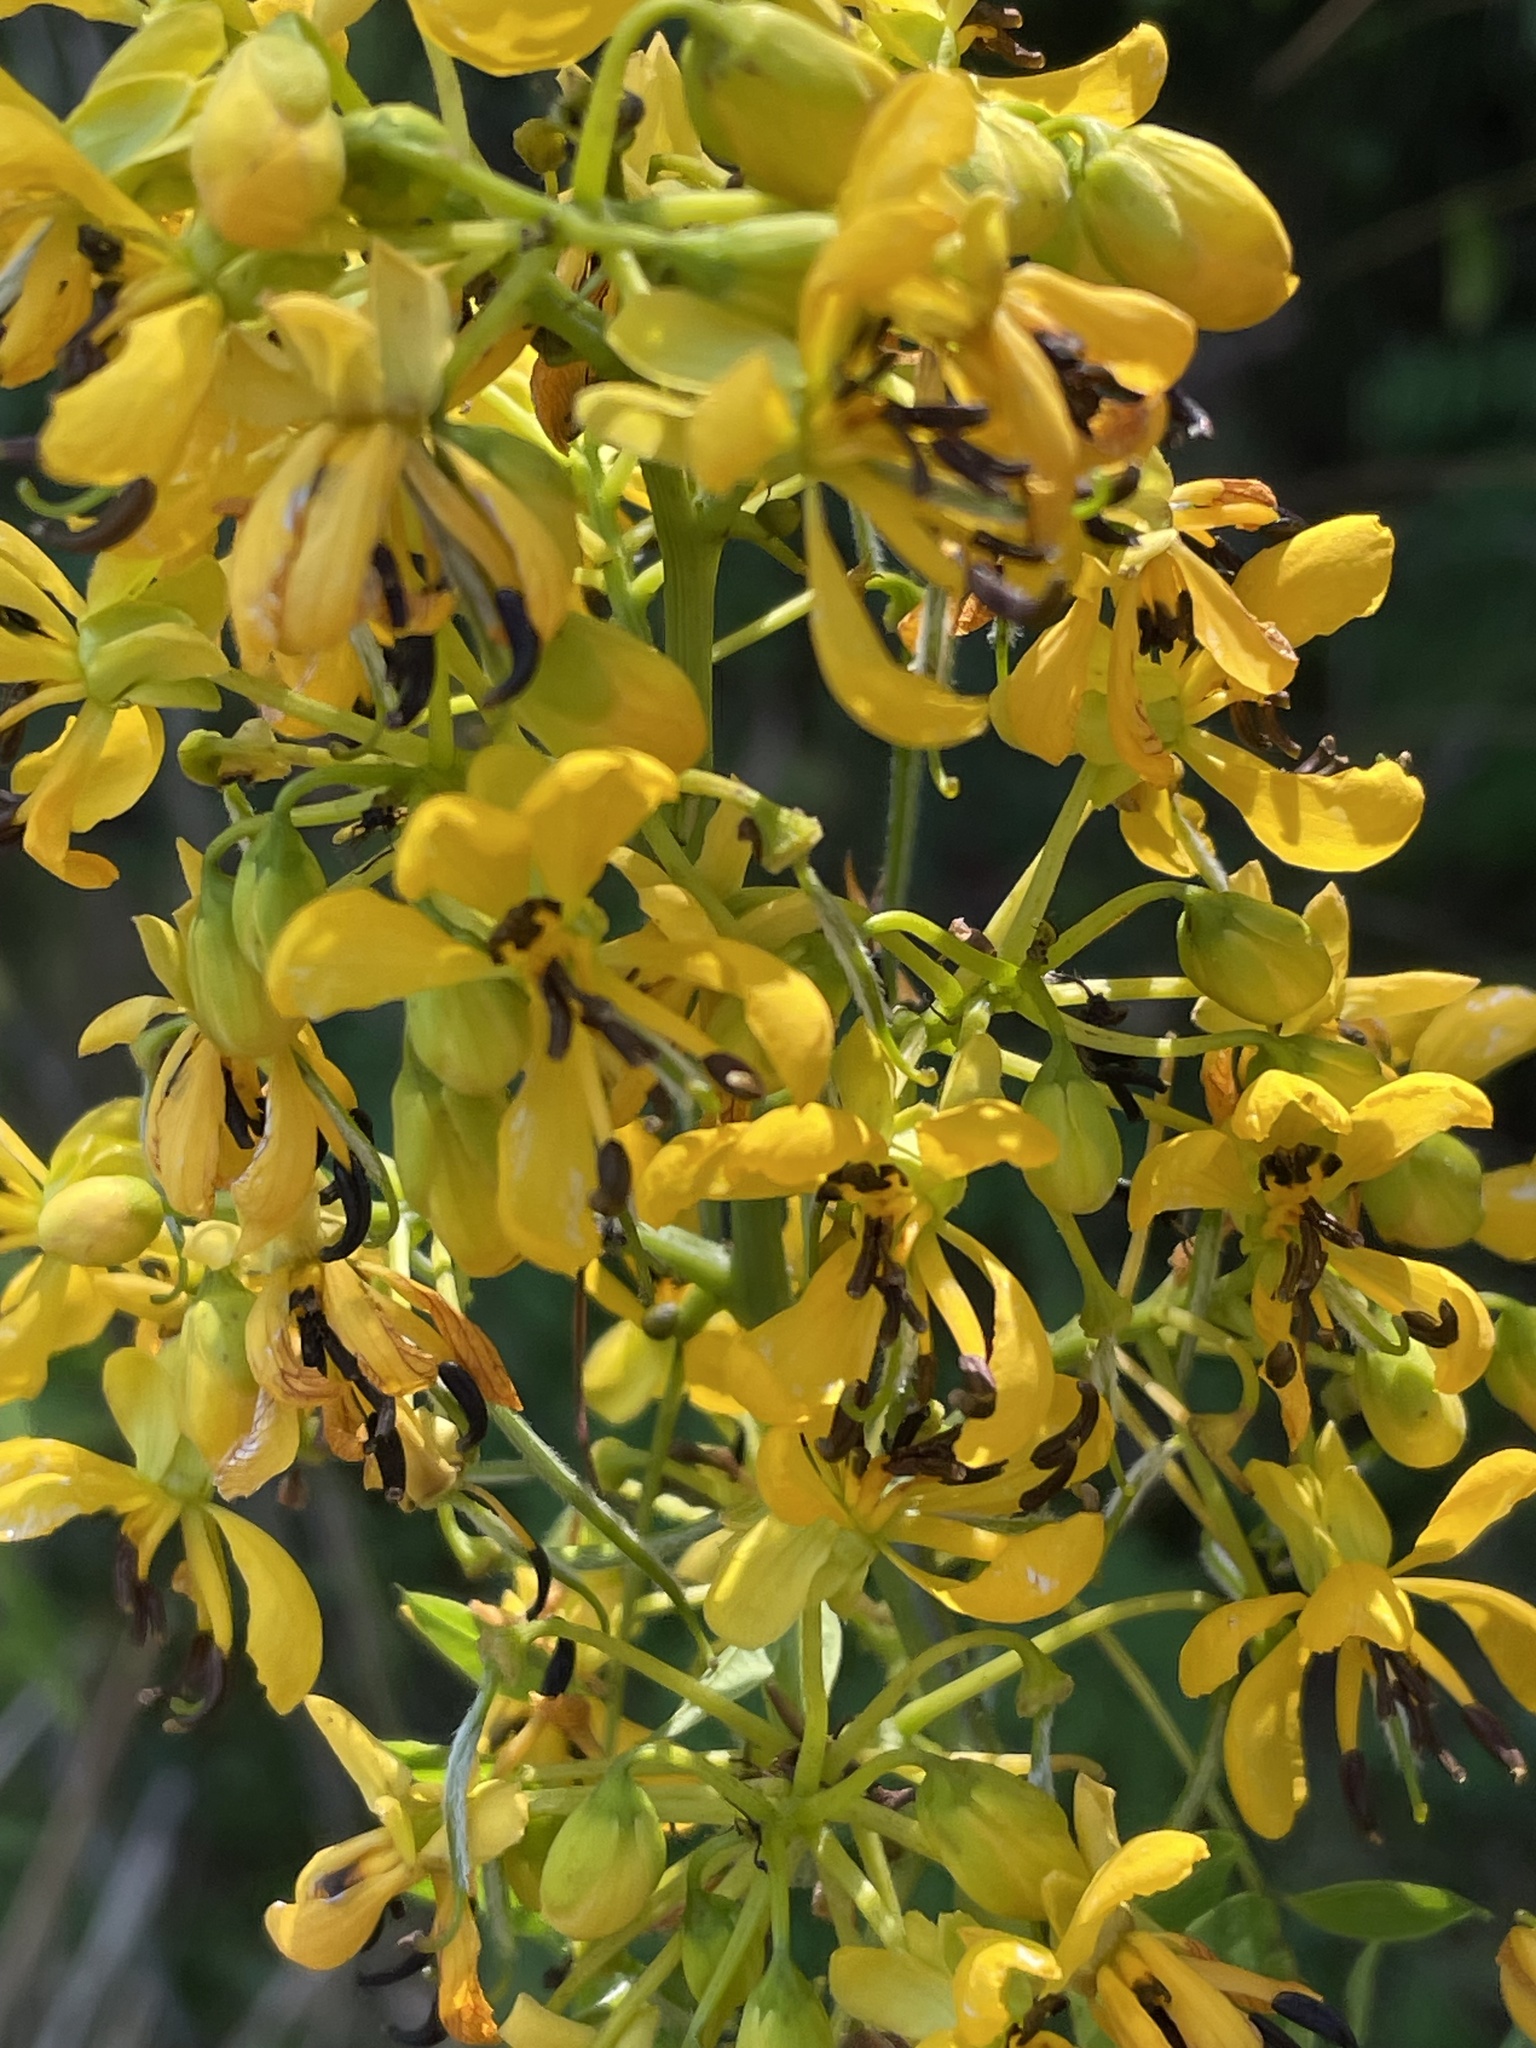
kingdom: Plantae
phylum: Tracheophyta
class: Magnoliopsida
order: Fabales
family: Fabaceae
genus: Senna
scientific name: Senna hebecarpa
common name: Wild senna
